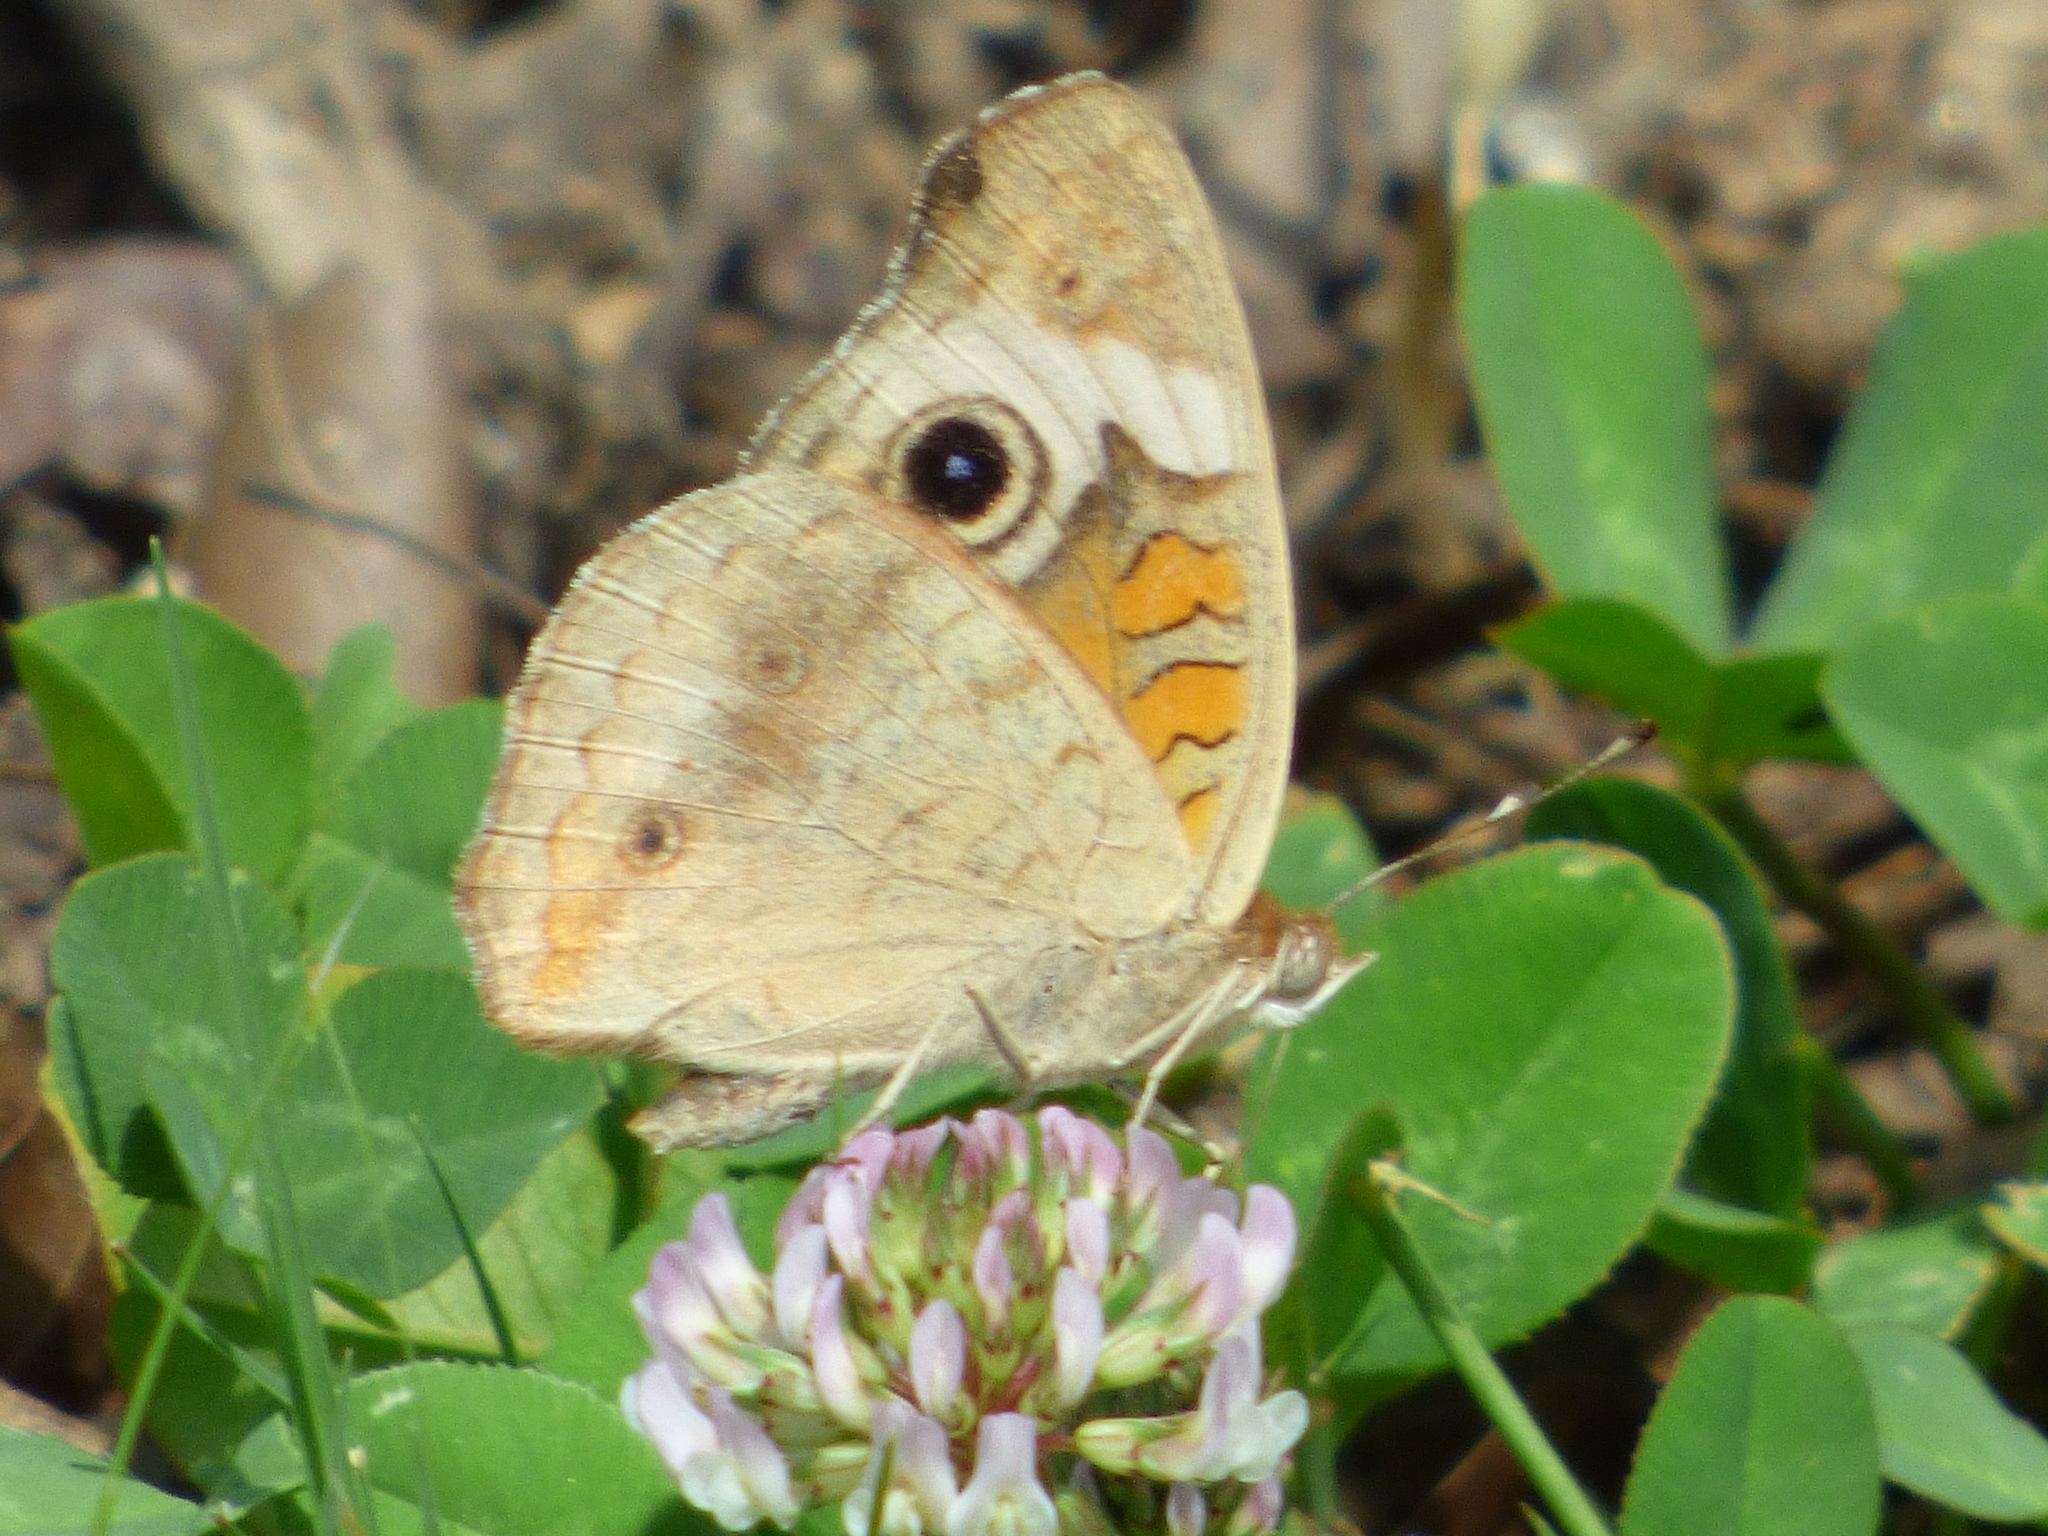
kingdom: Animalia
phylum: Arthropoda
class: Insecta
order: Lepidoptera
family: Nymphalidae
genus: Junonia
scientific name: Junonia coenia
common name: Common buckeye
